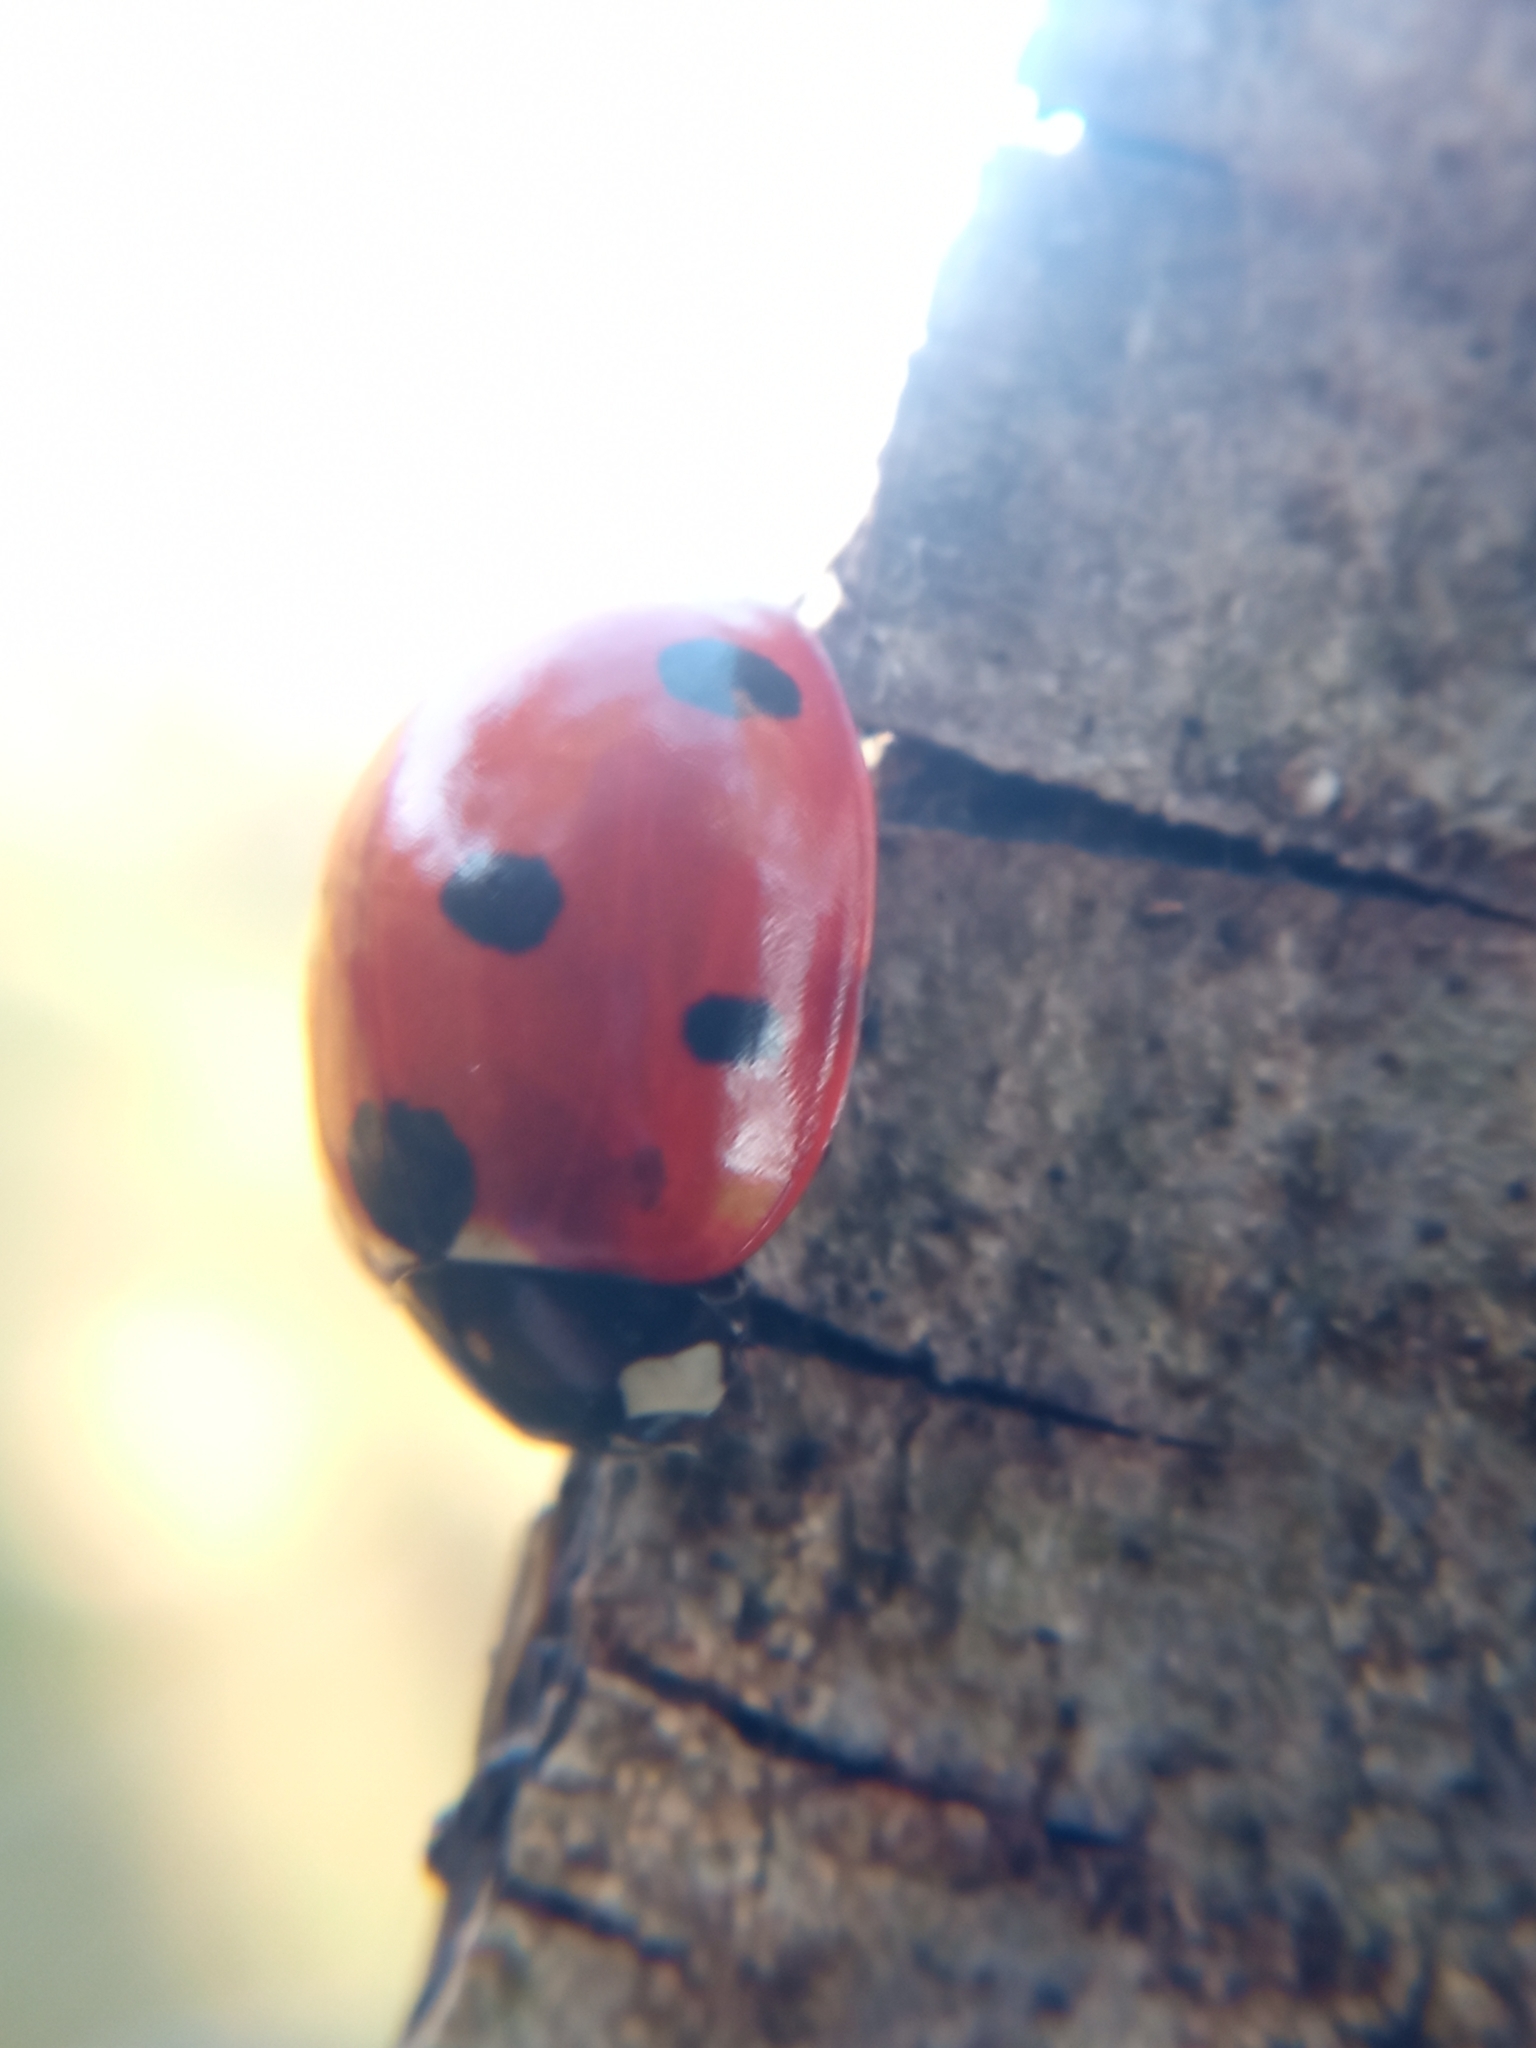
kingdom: Animalia
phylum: Arthropoda
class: Insecta
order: Coleoptera
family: Coccinellidae
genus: Coccinella
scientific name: Coccinella septempunctata
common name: Sevenspotted lady beetle
